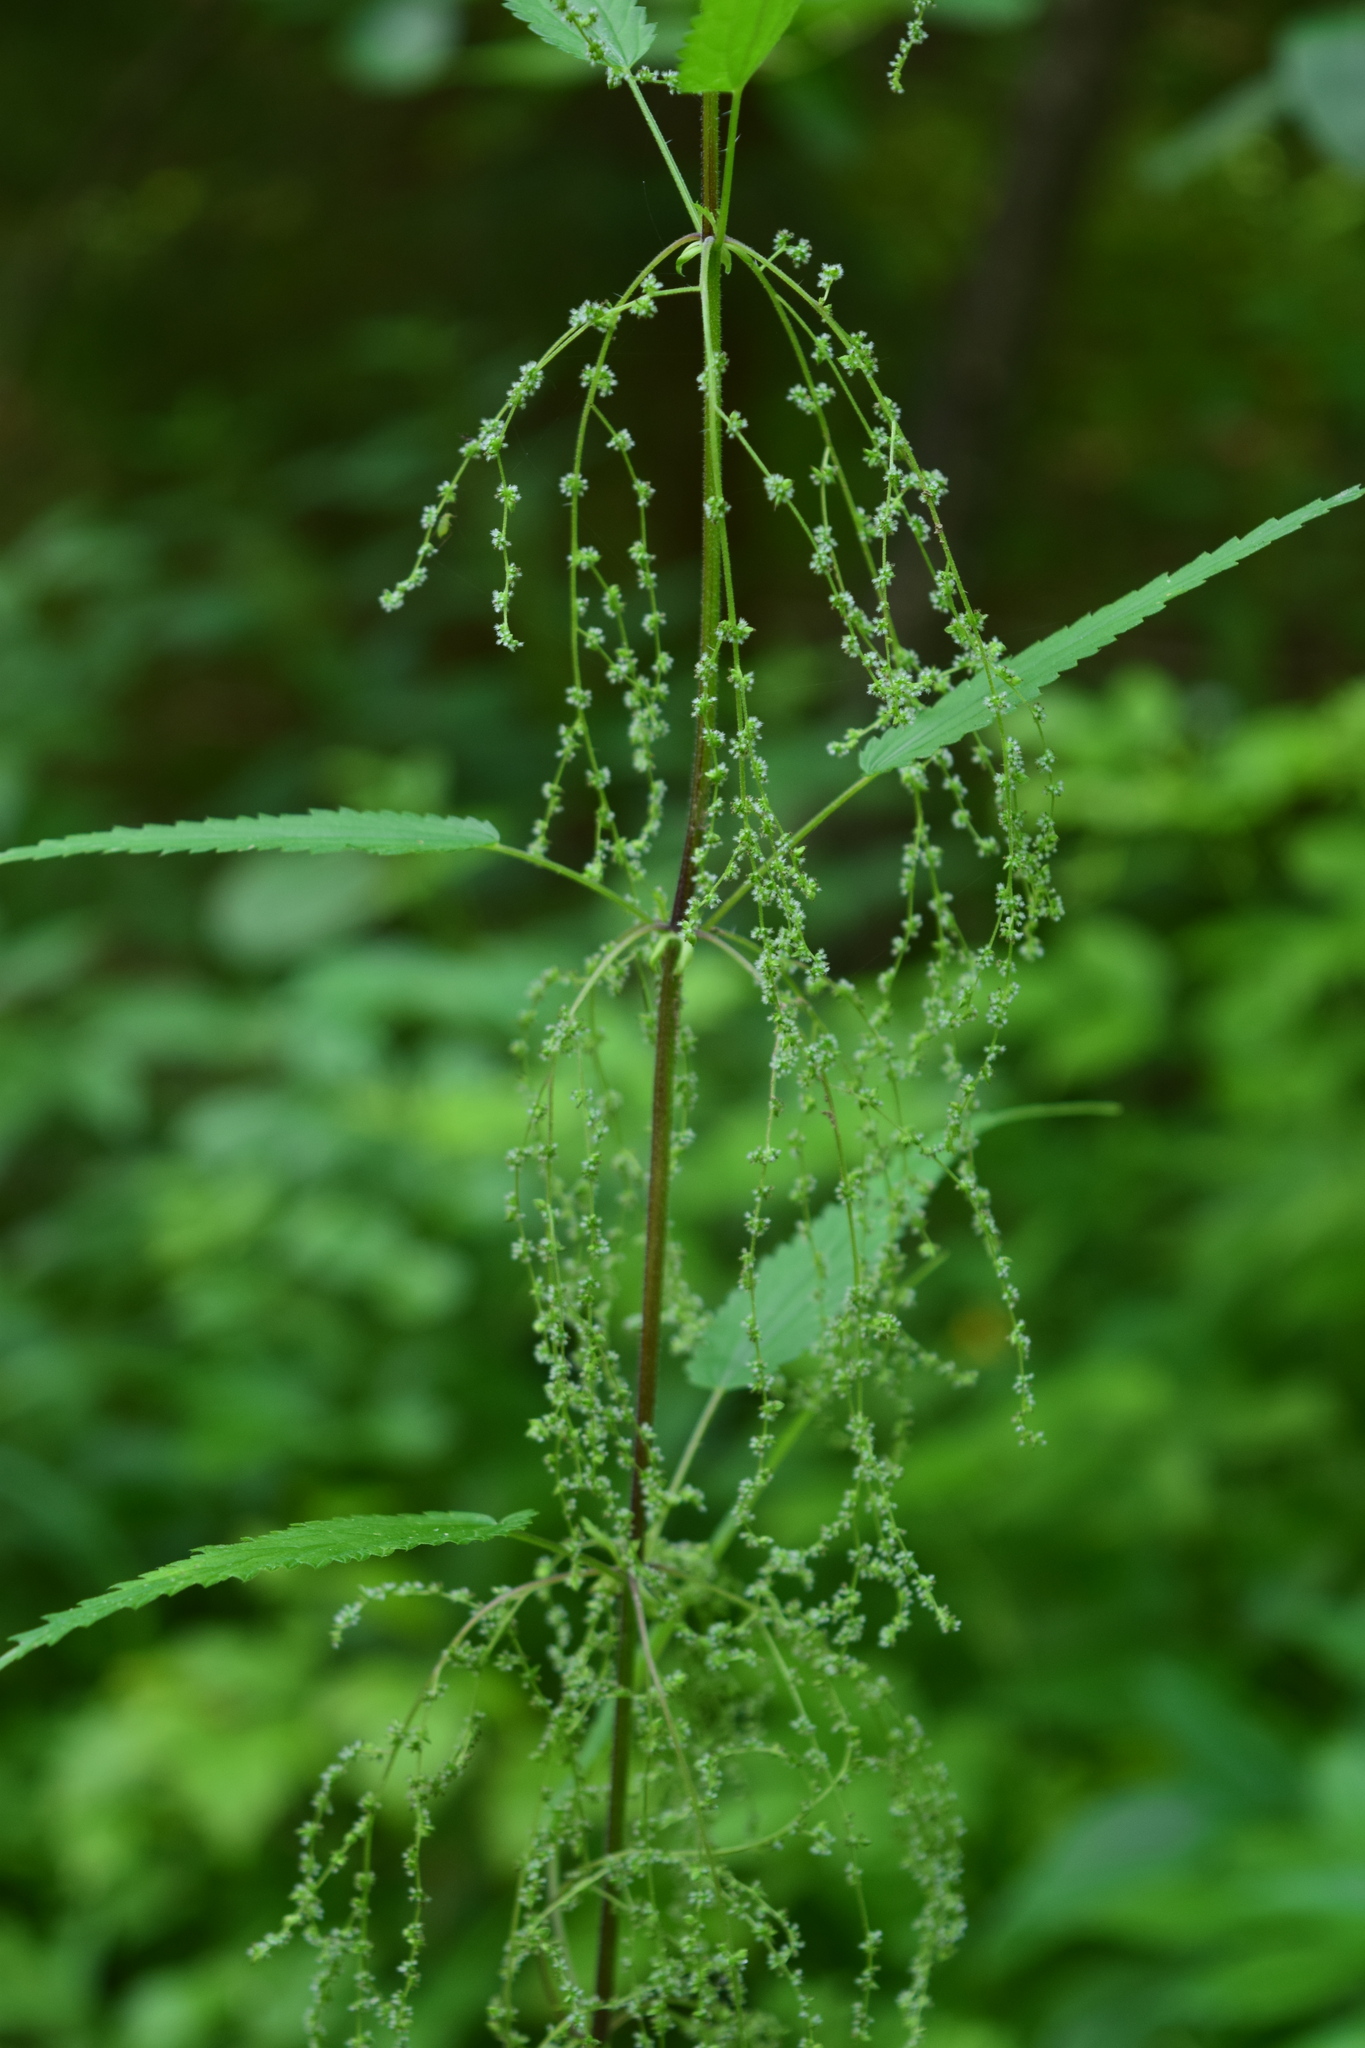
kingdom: Plantae
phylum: Tracheophyta
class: Magnoliopsida
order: Rosales
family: Urticaceae
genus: Urtica
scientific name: Urtica dioica
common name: Common nettle
